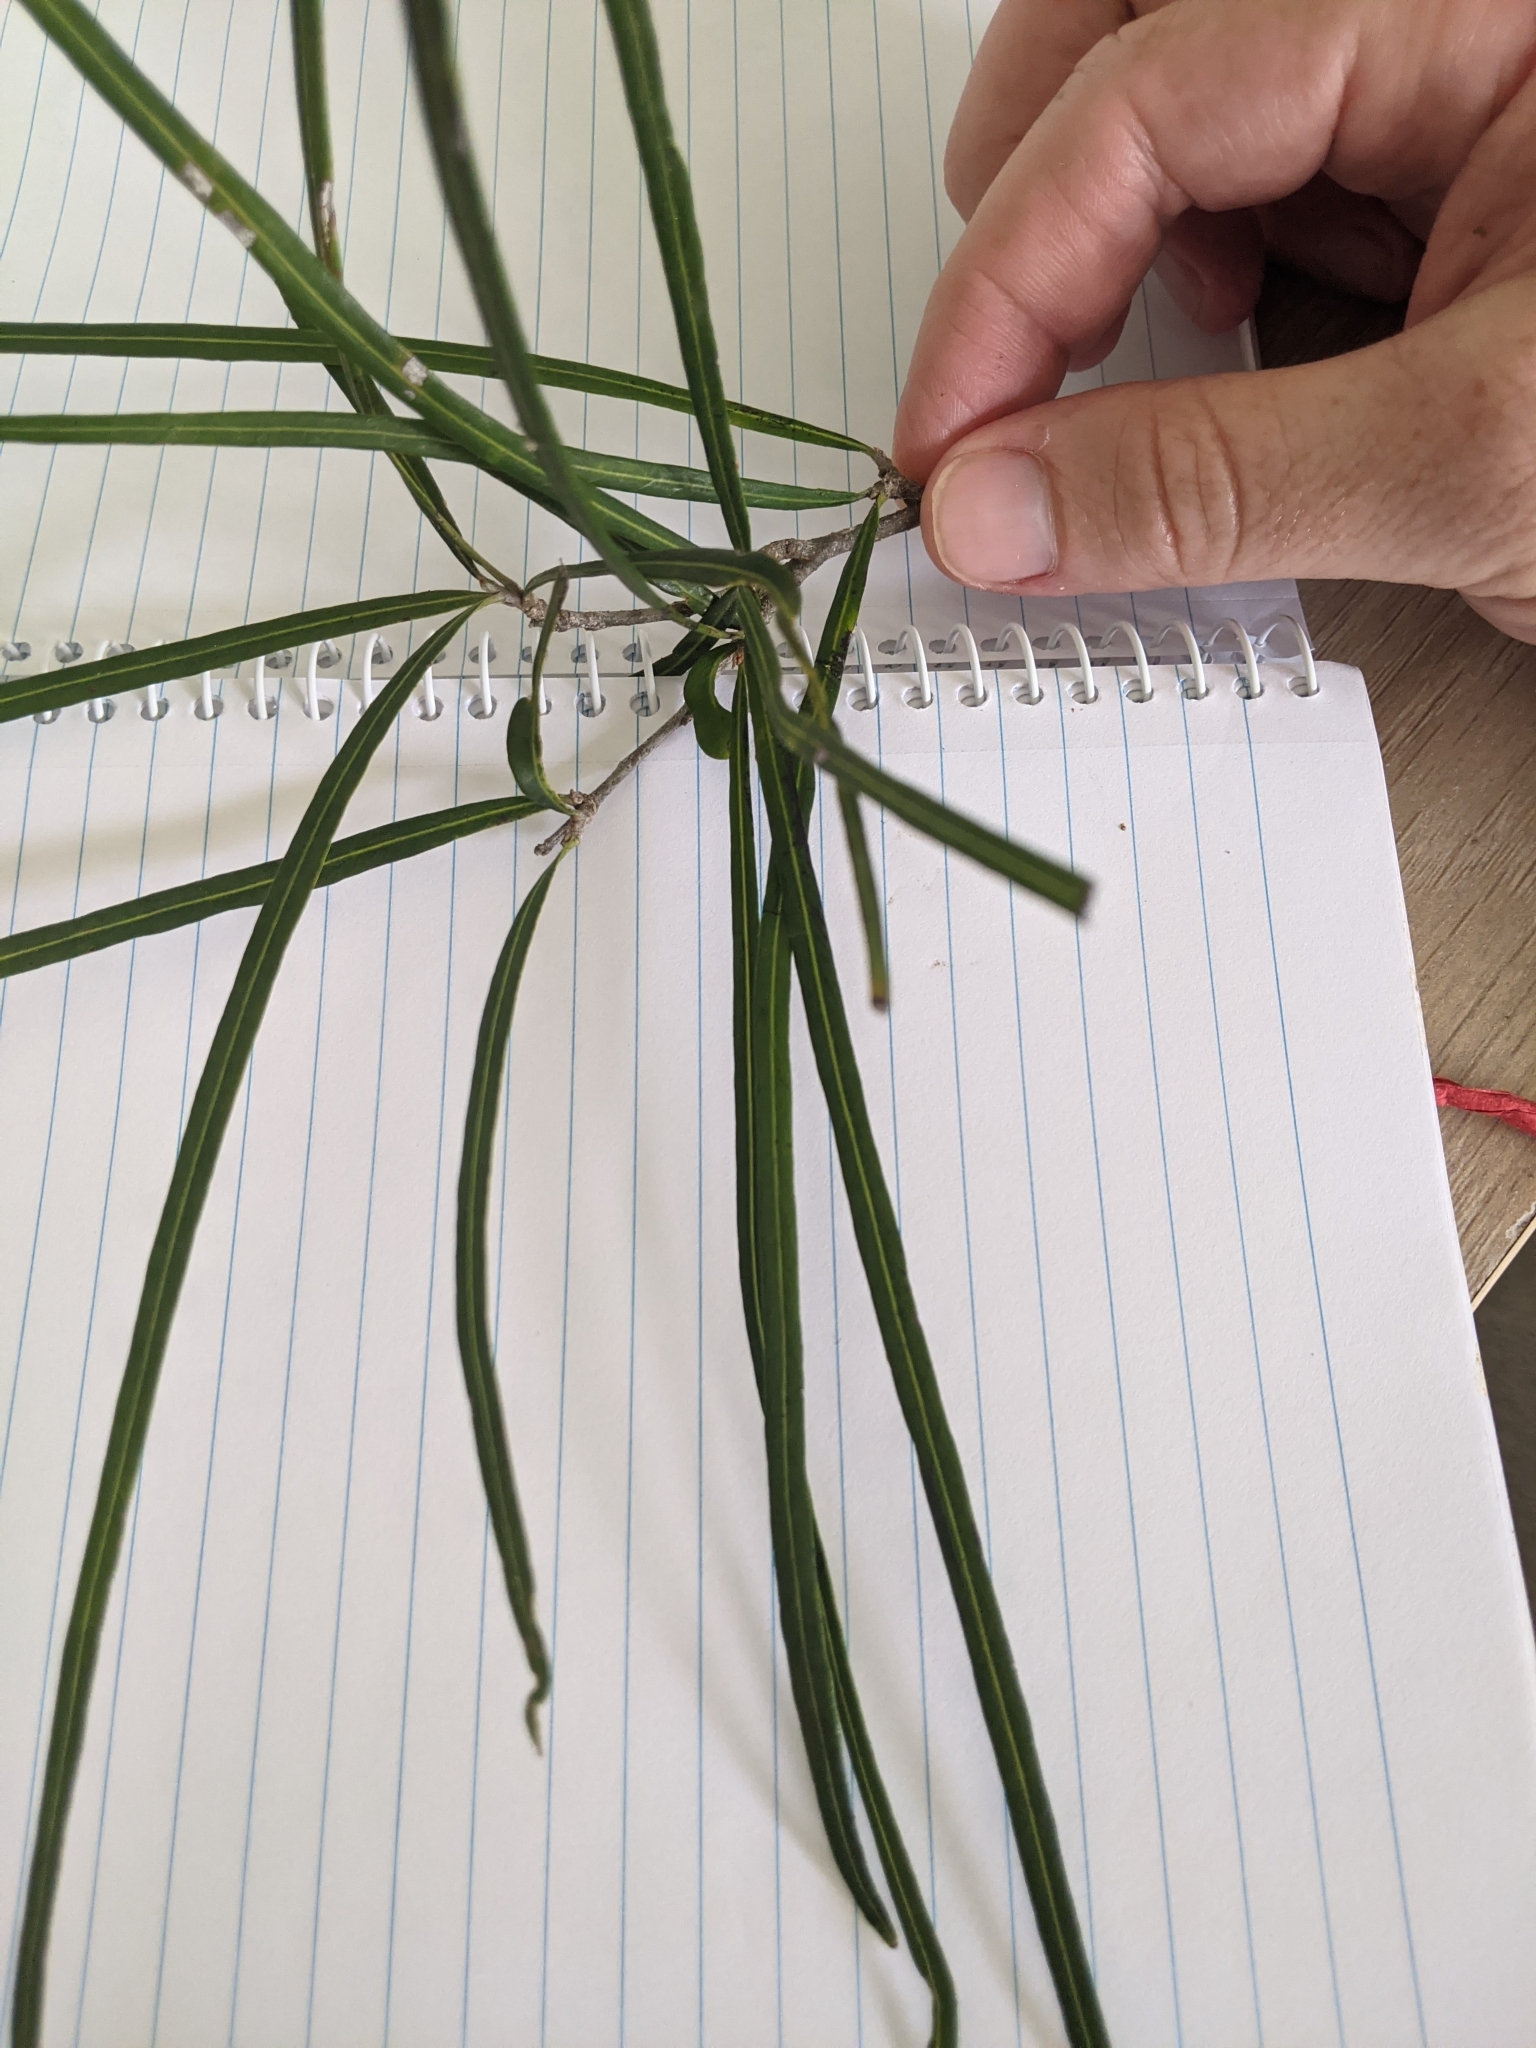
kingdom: Plantae
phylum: Tracheophyta
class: Magnoliopsida
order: Proteales
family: Proteaceae
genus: Grevillea
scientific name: Grevillea helmsiae
